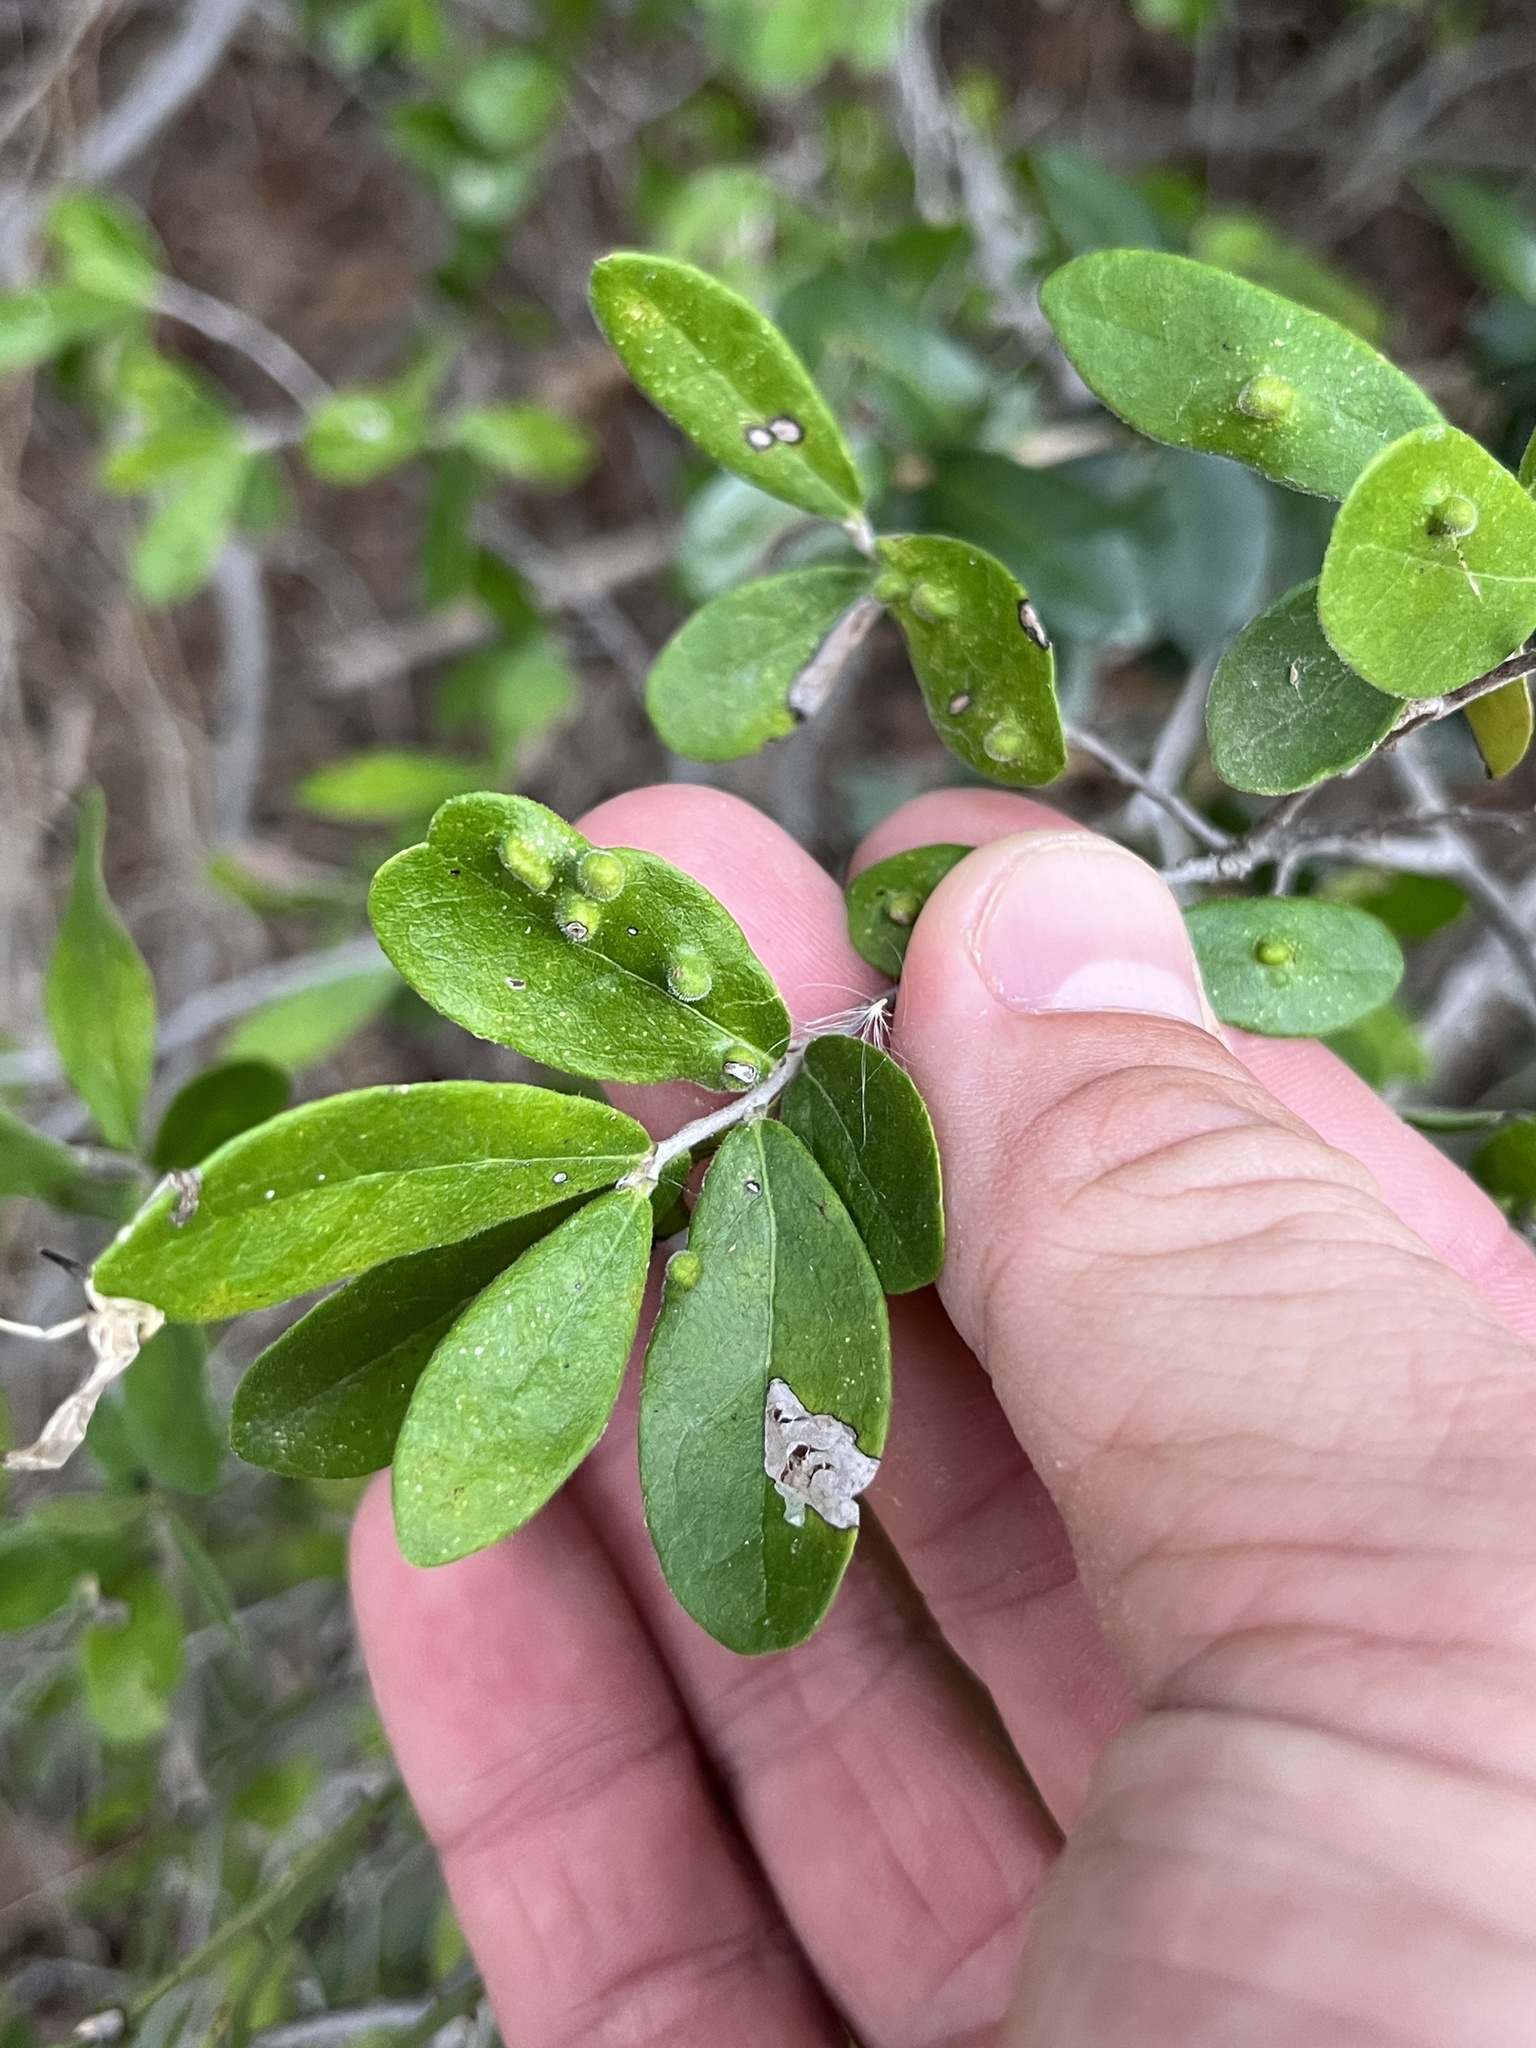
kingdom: Plantae
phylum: Tracheophyta
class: Magnoliopsida
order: Ericales
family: Ebenaceae
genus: Diospyros
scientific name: Diospyros texana
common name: Texas persimmon
